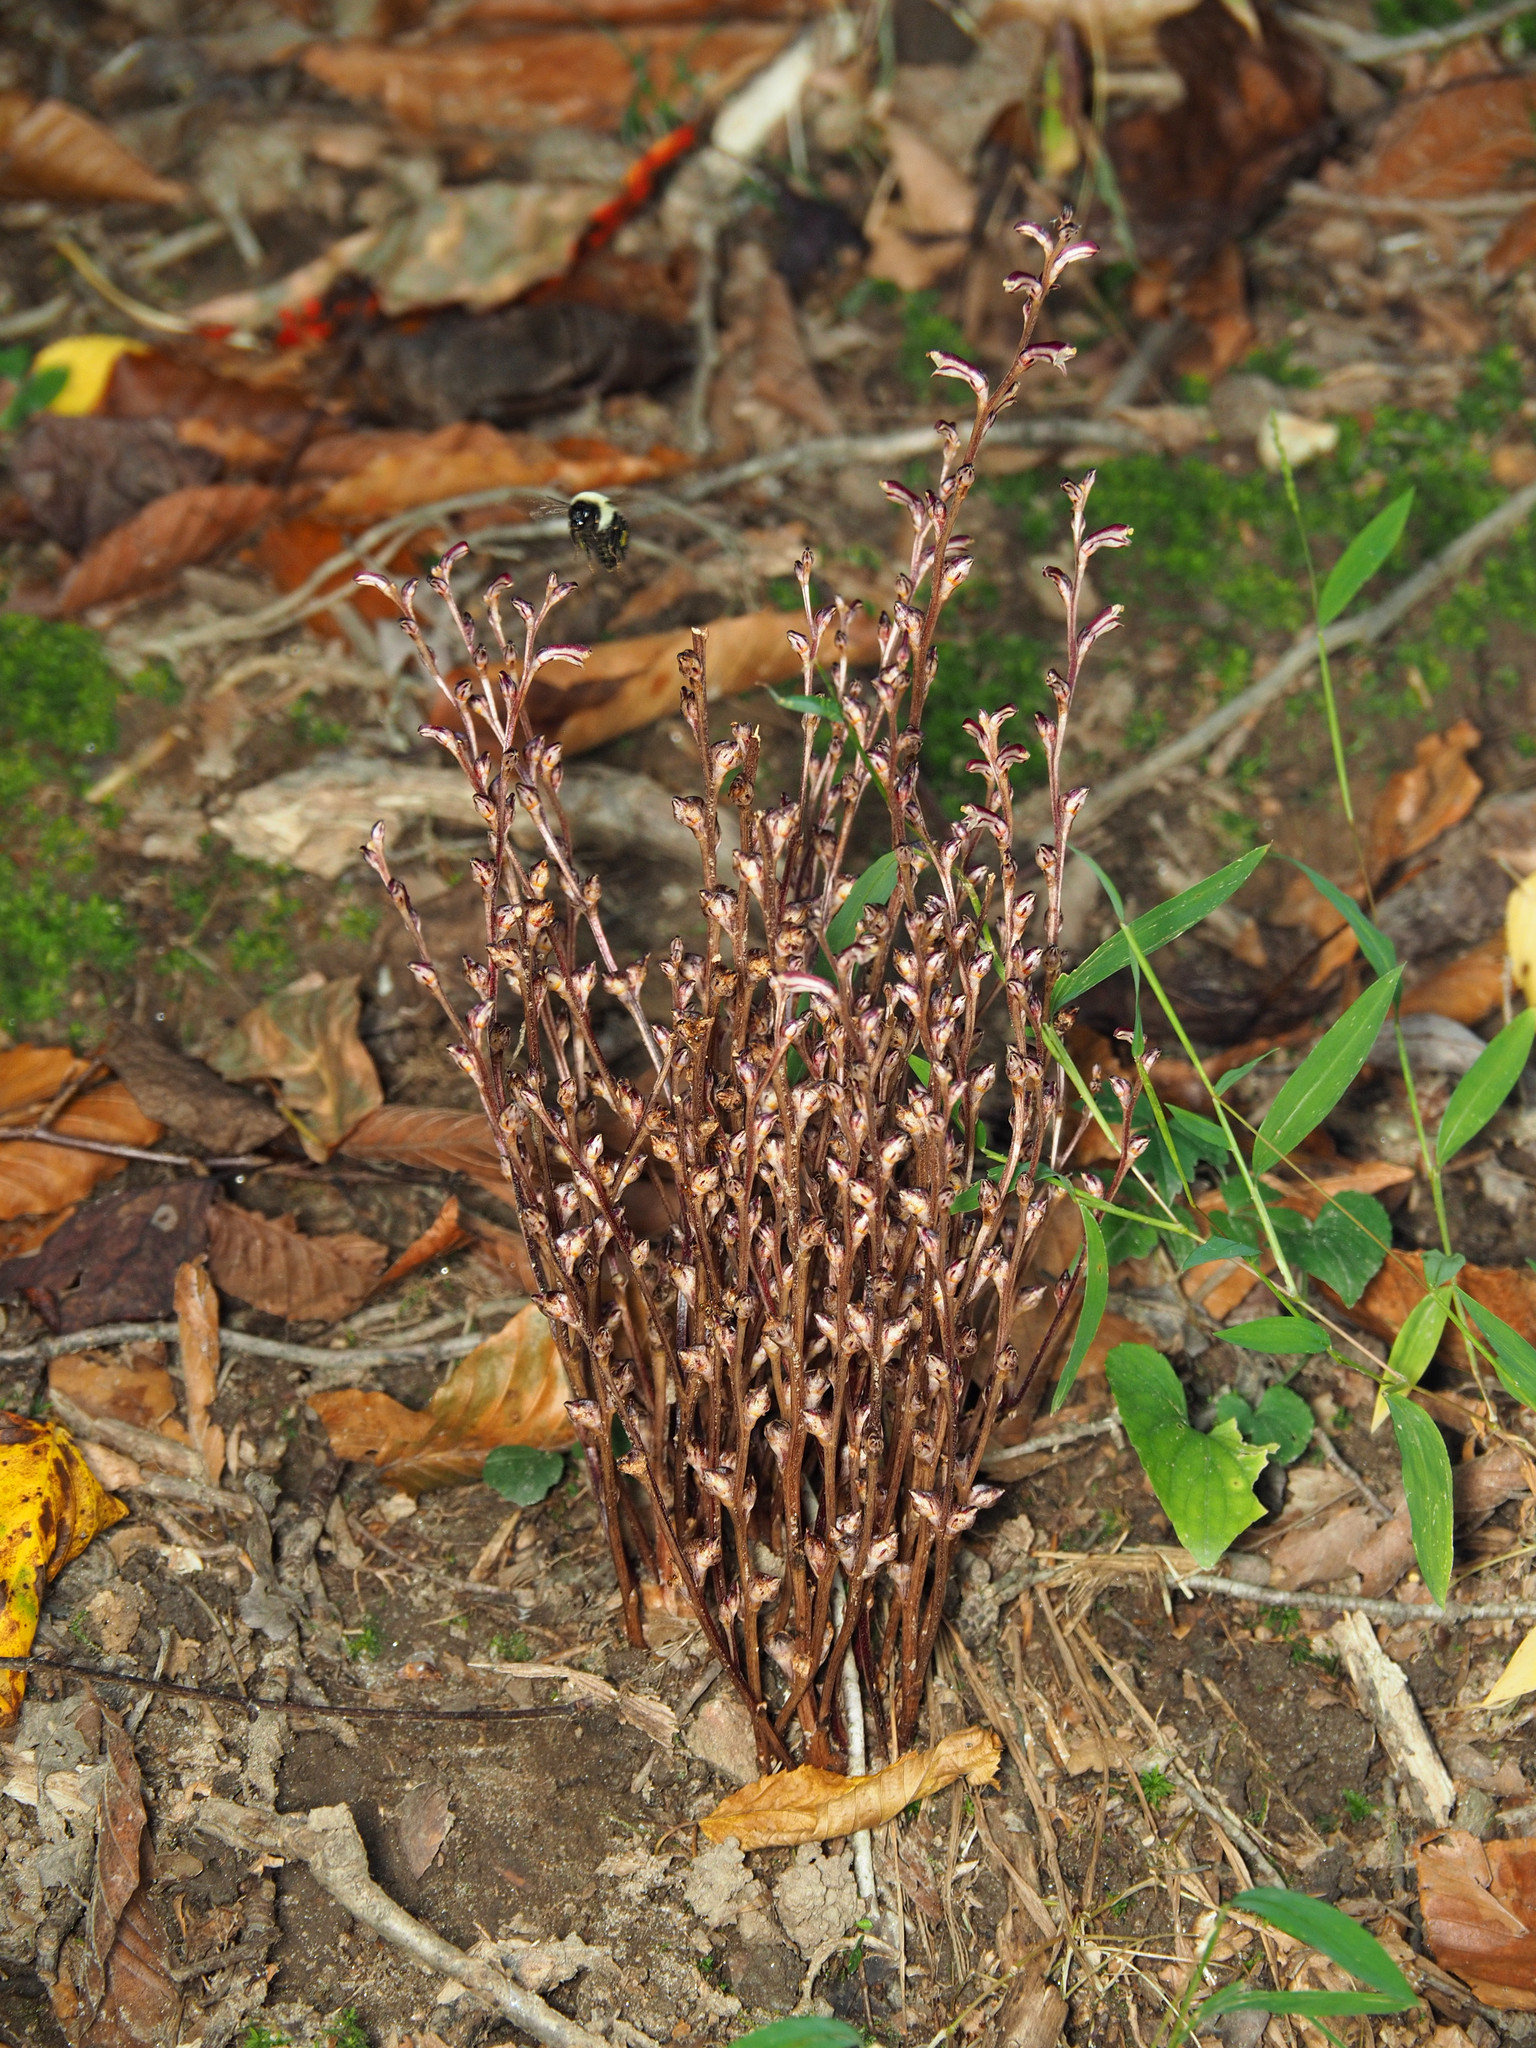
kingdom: Plantae
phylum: Tracheophyta
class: Magnoliopsida
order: Lamiales
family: Orobanchaceae
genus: Epifagus
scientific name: Epifagus virginiana
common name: Beechdrops
